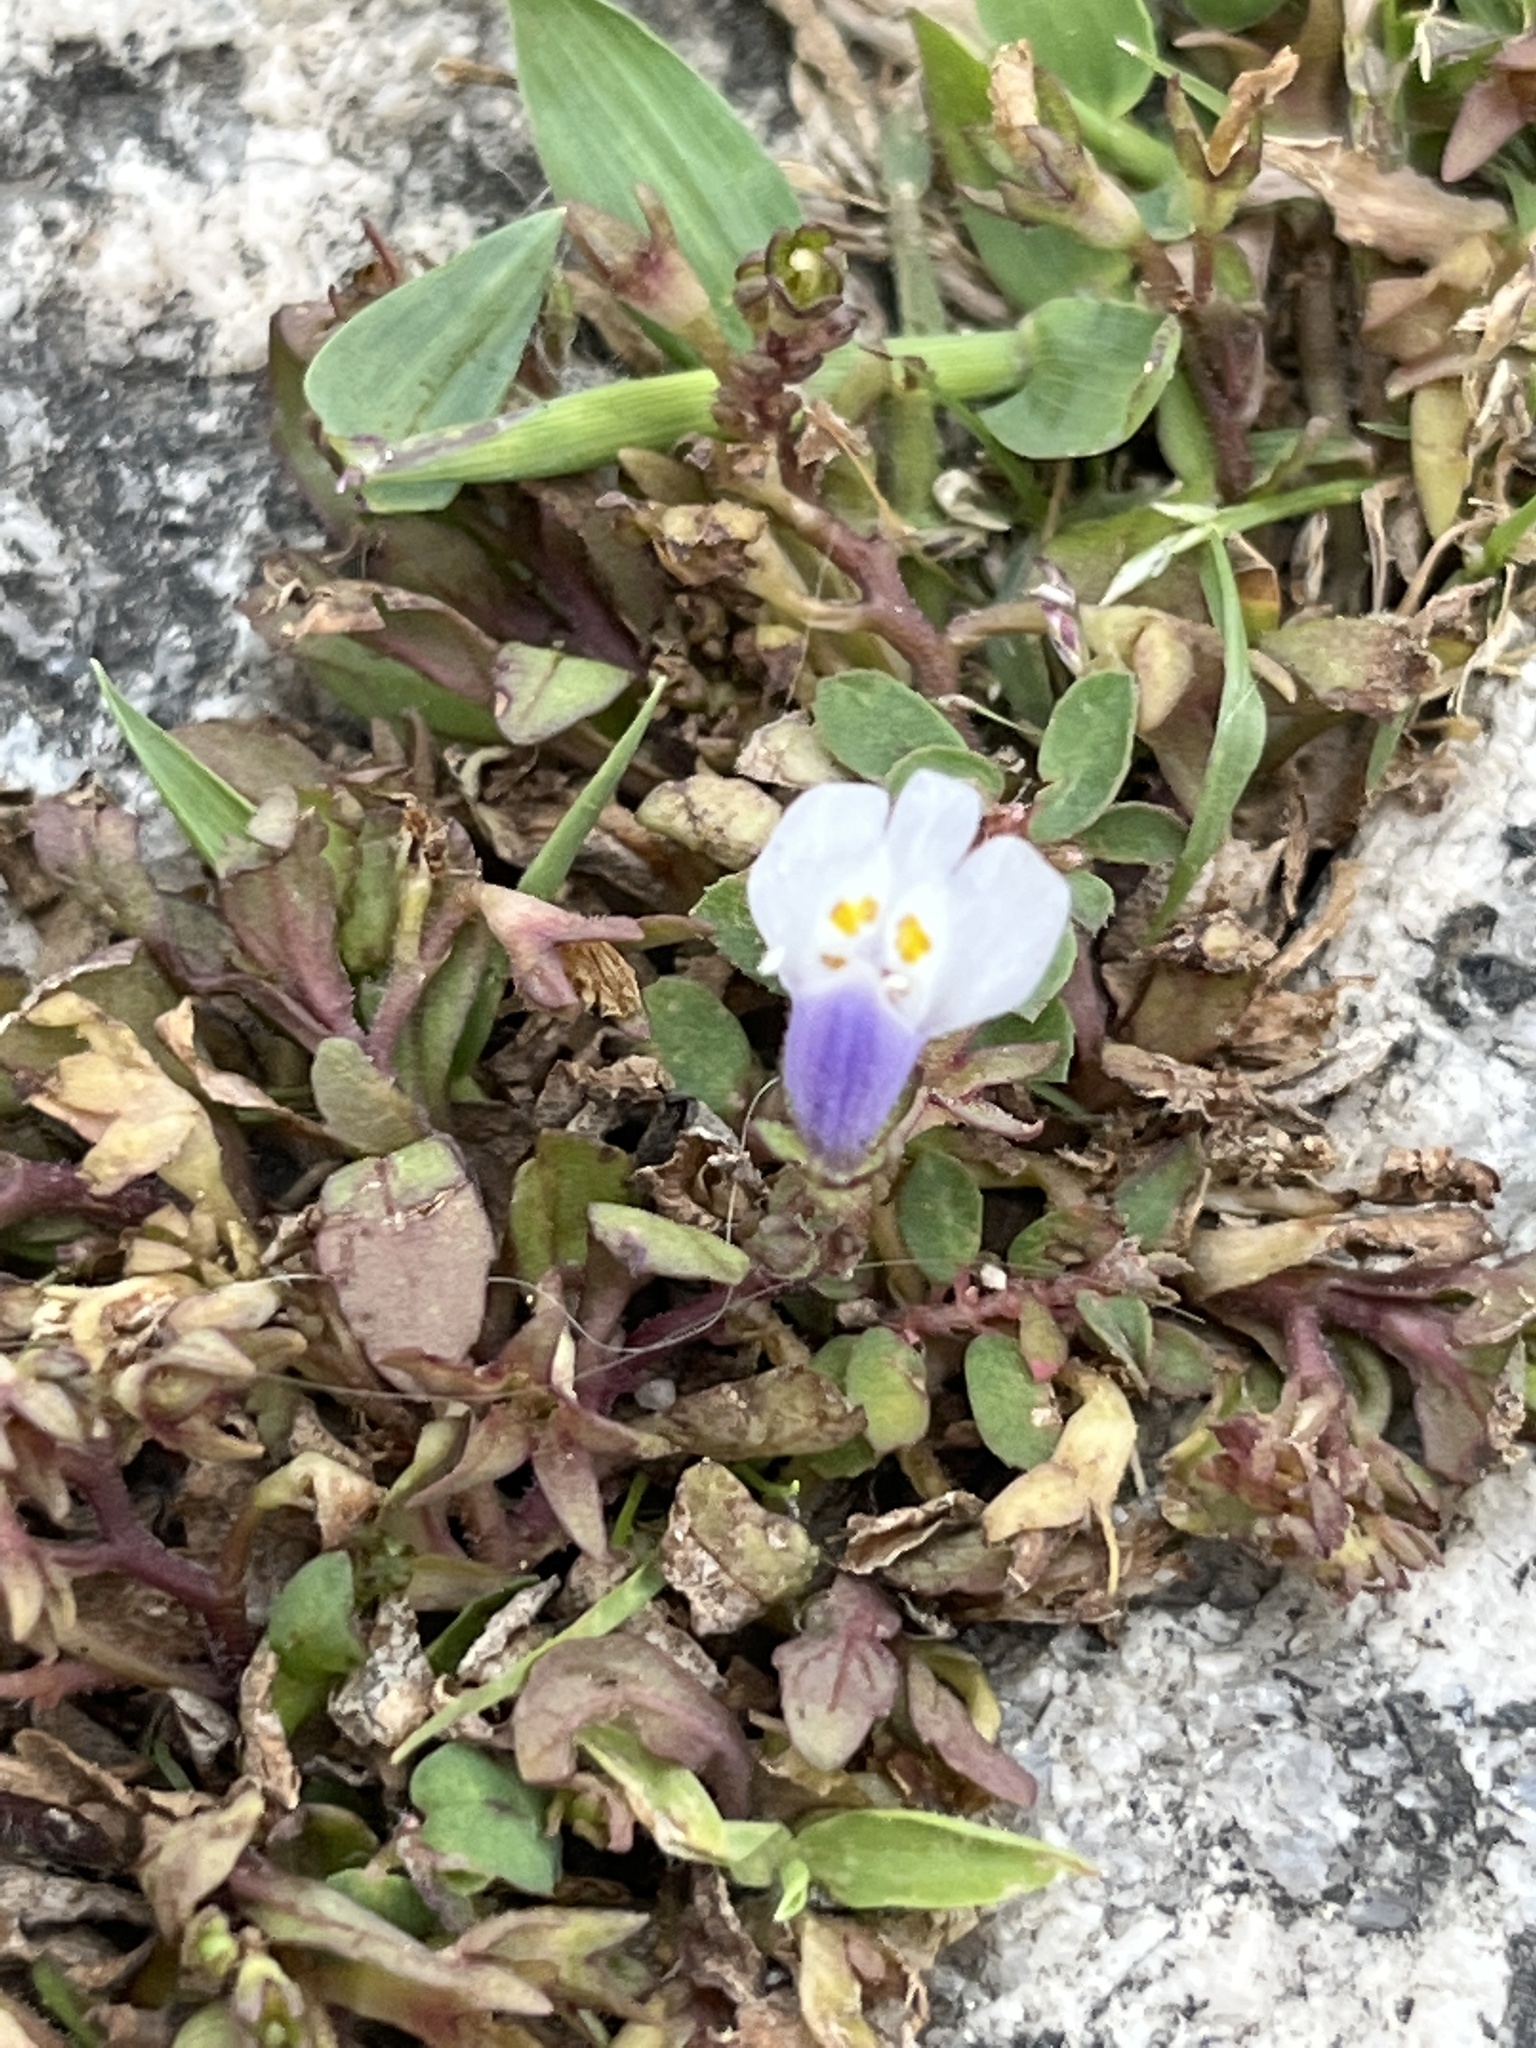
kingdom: Plantae
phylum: Tracheophyta
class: Magnoliopsida
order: Lamiales
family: Mazaceae
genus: Mazus
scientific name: Mazus pumilus
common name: Japanese mazus
